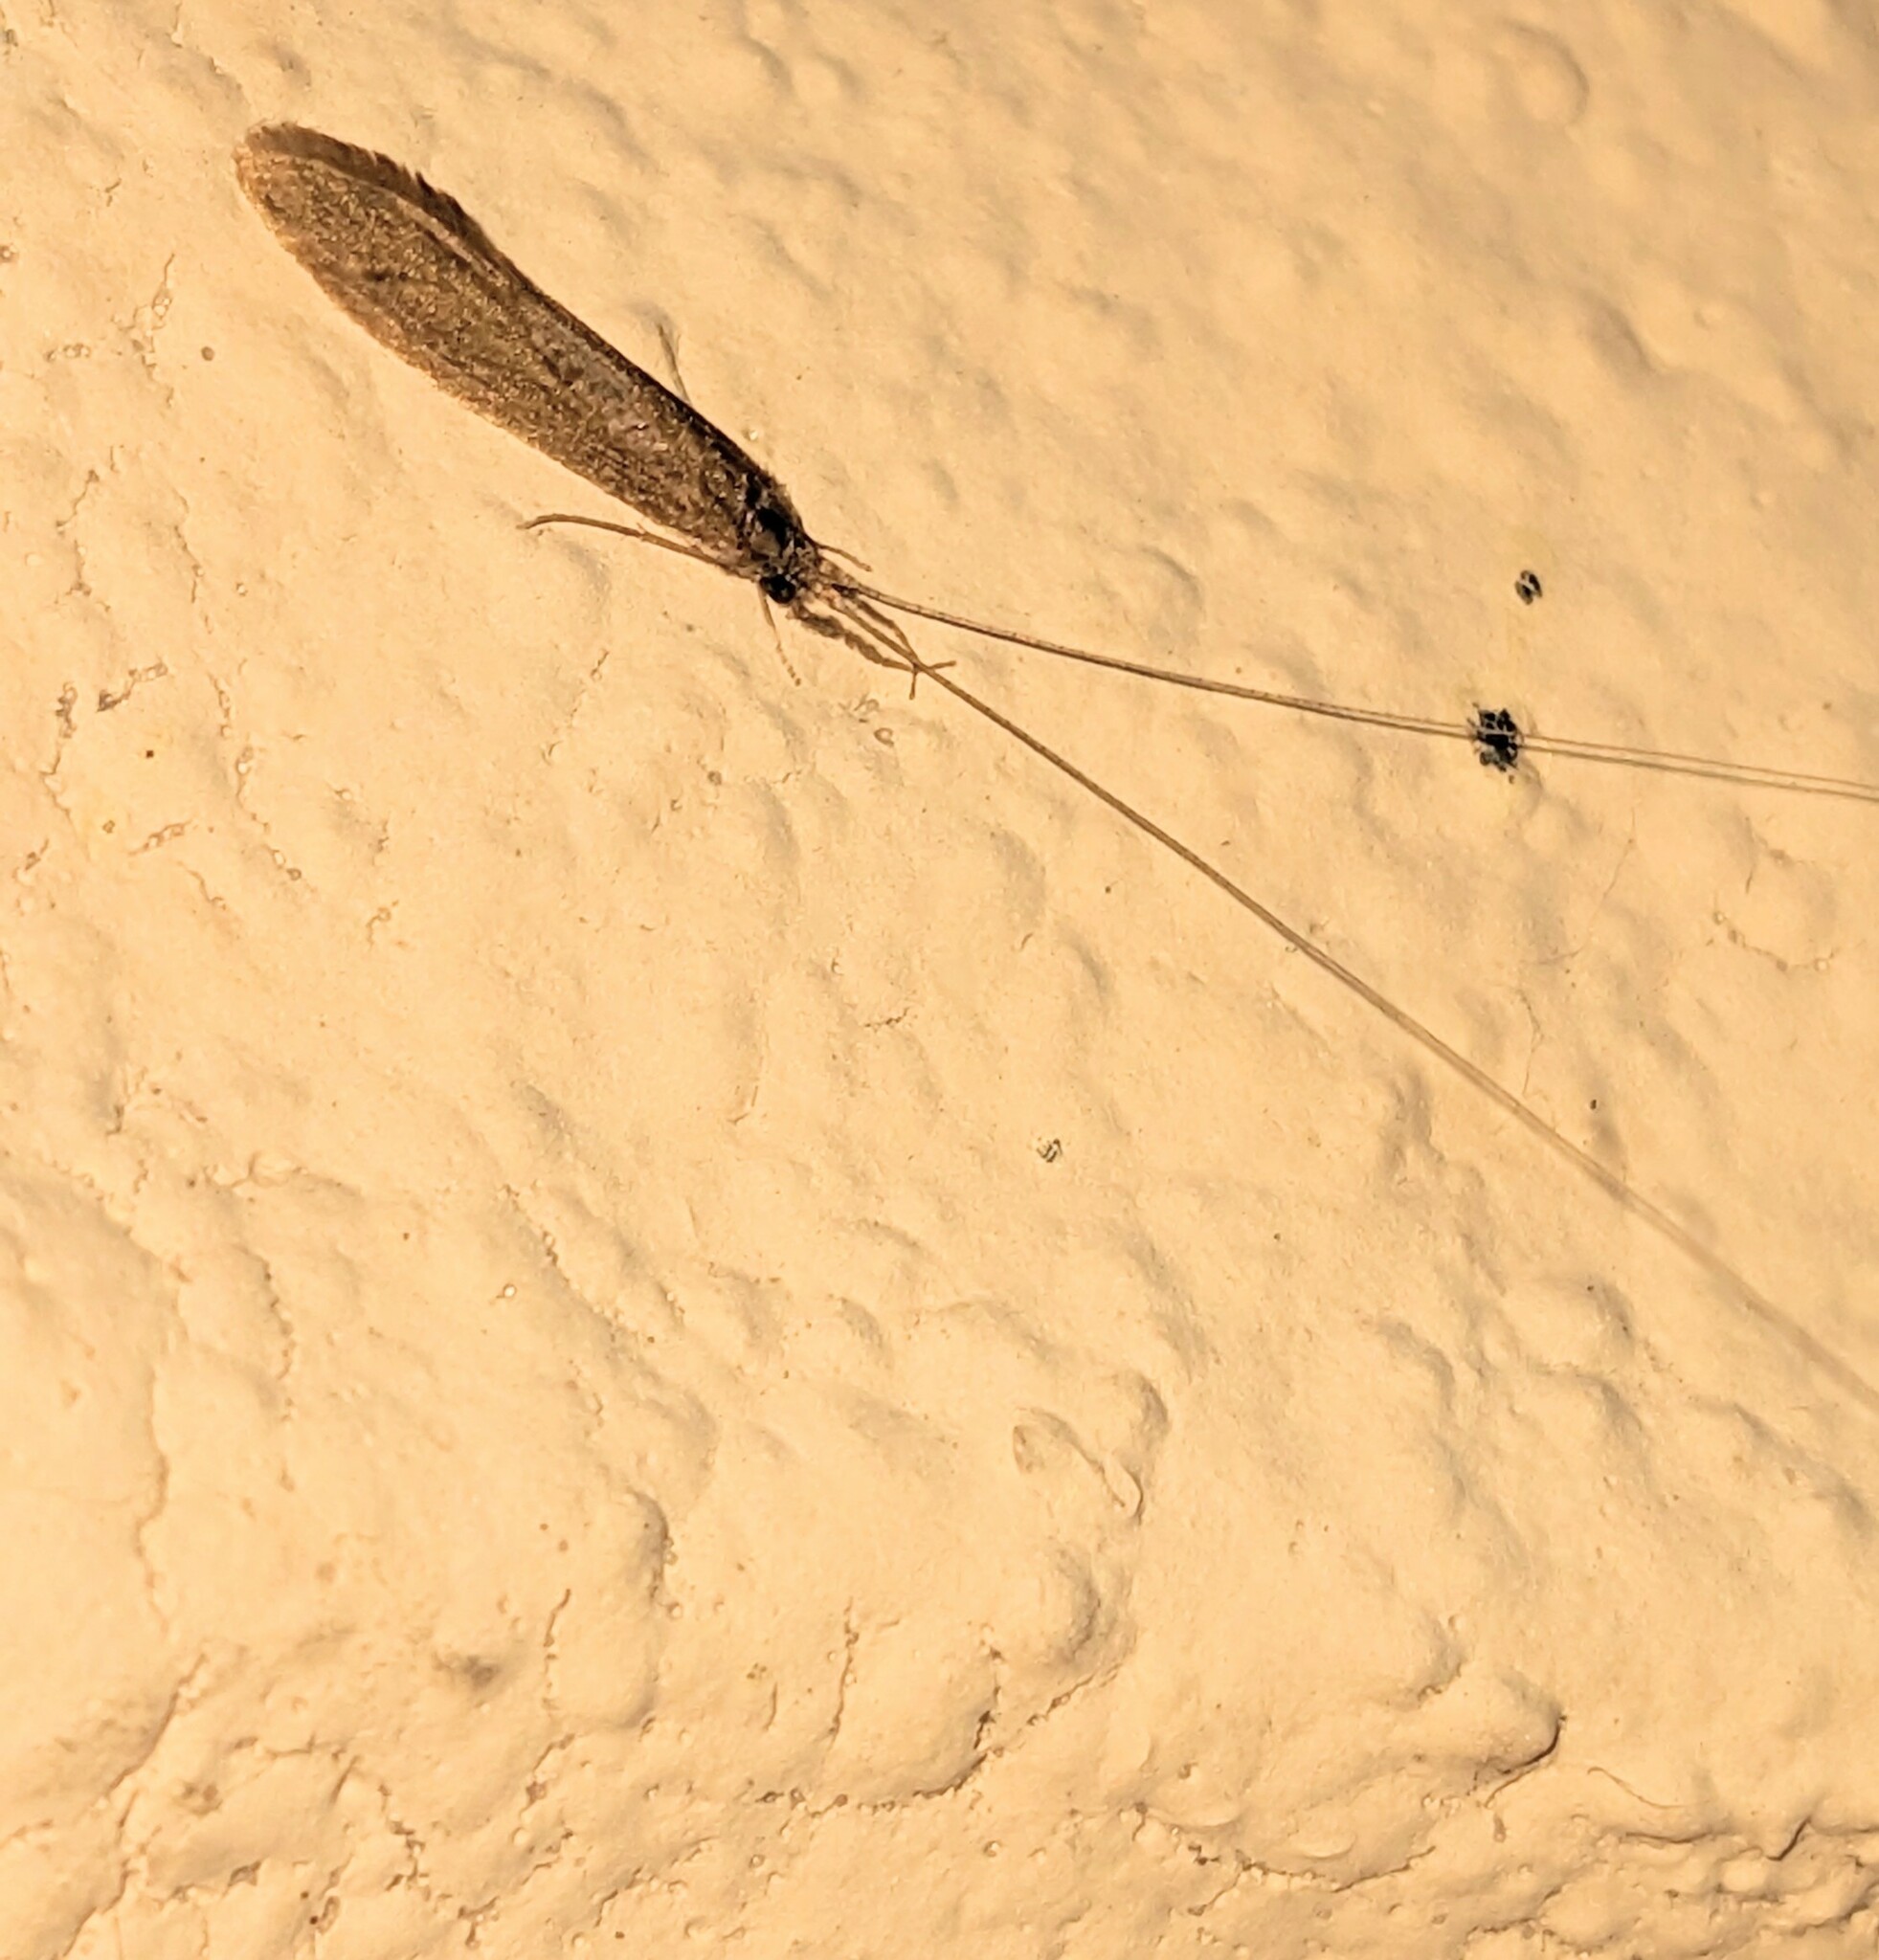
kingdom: Animalia
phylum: Arthropoda
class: Insecta
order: Trichoptera
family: Leptoceridae
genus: Leptocerus
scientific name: Leptocerus americanus
